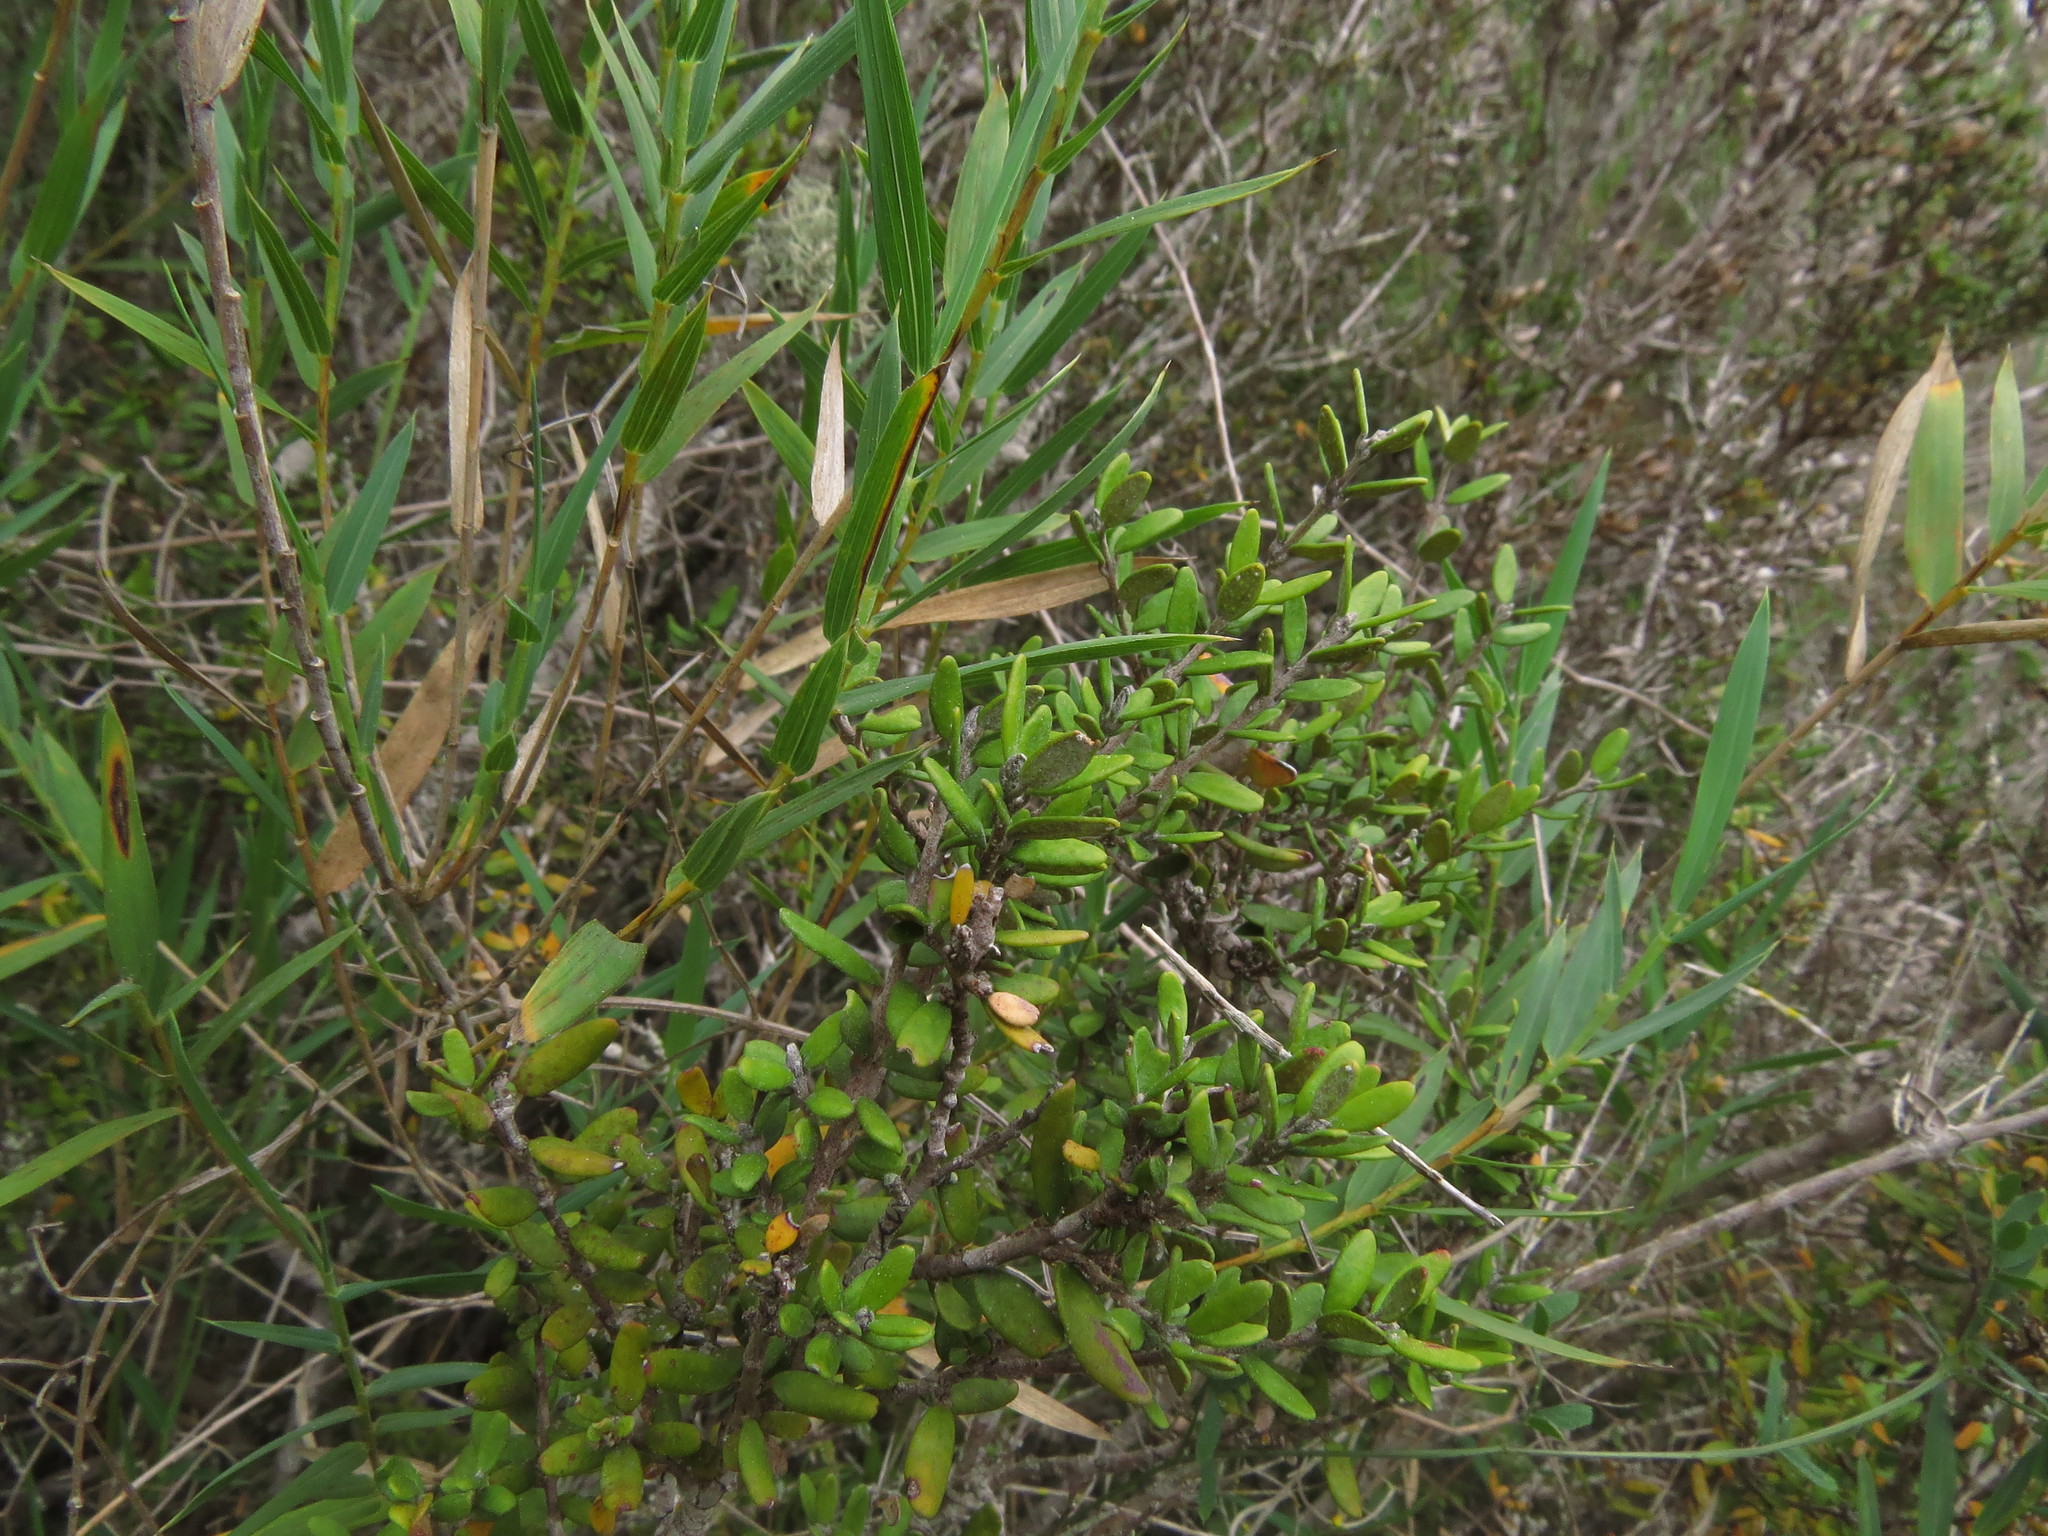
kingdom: Plantae
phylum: Tracheophyta
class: Magnoliopsida
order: Myrtales
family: Myrtaceae
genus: Myrceugenia
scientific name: Myrceugenia rufa
